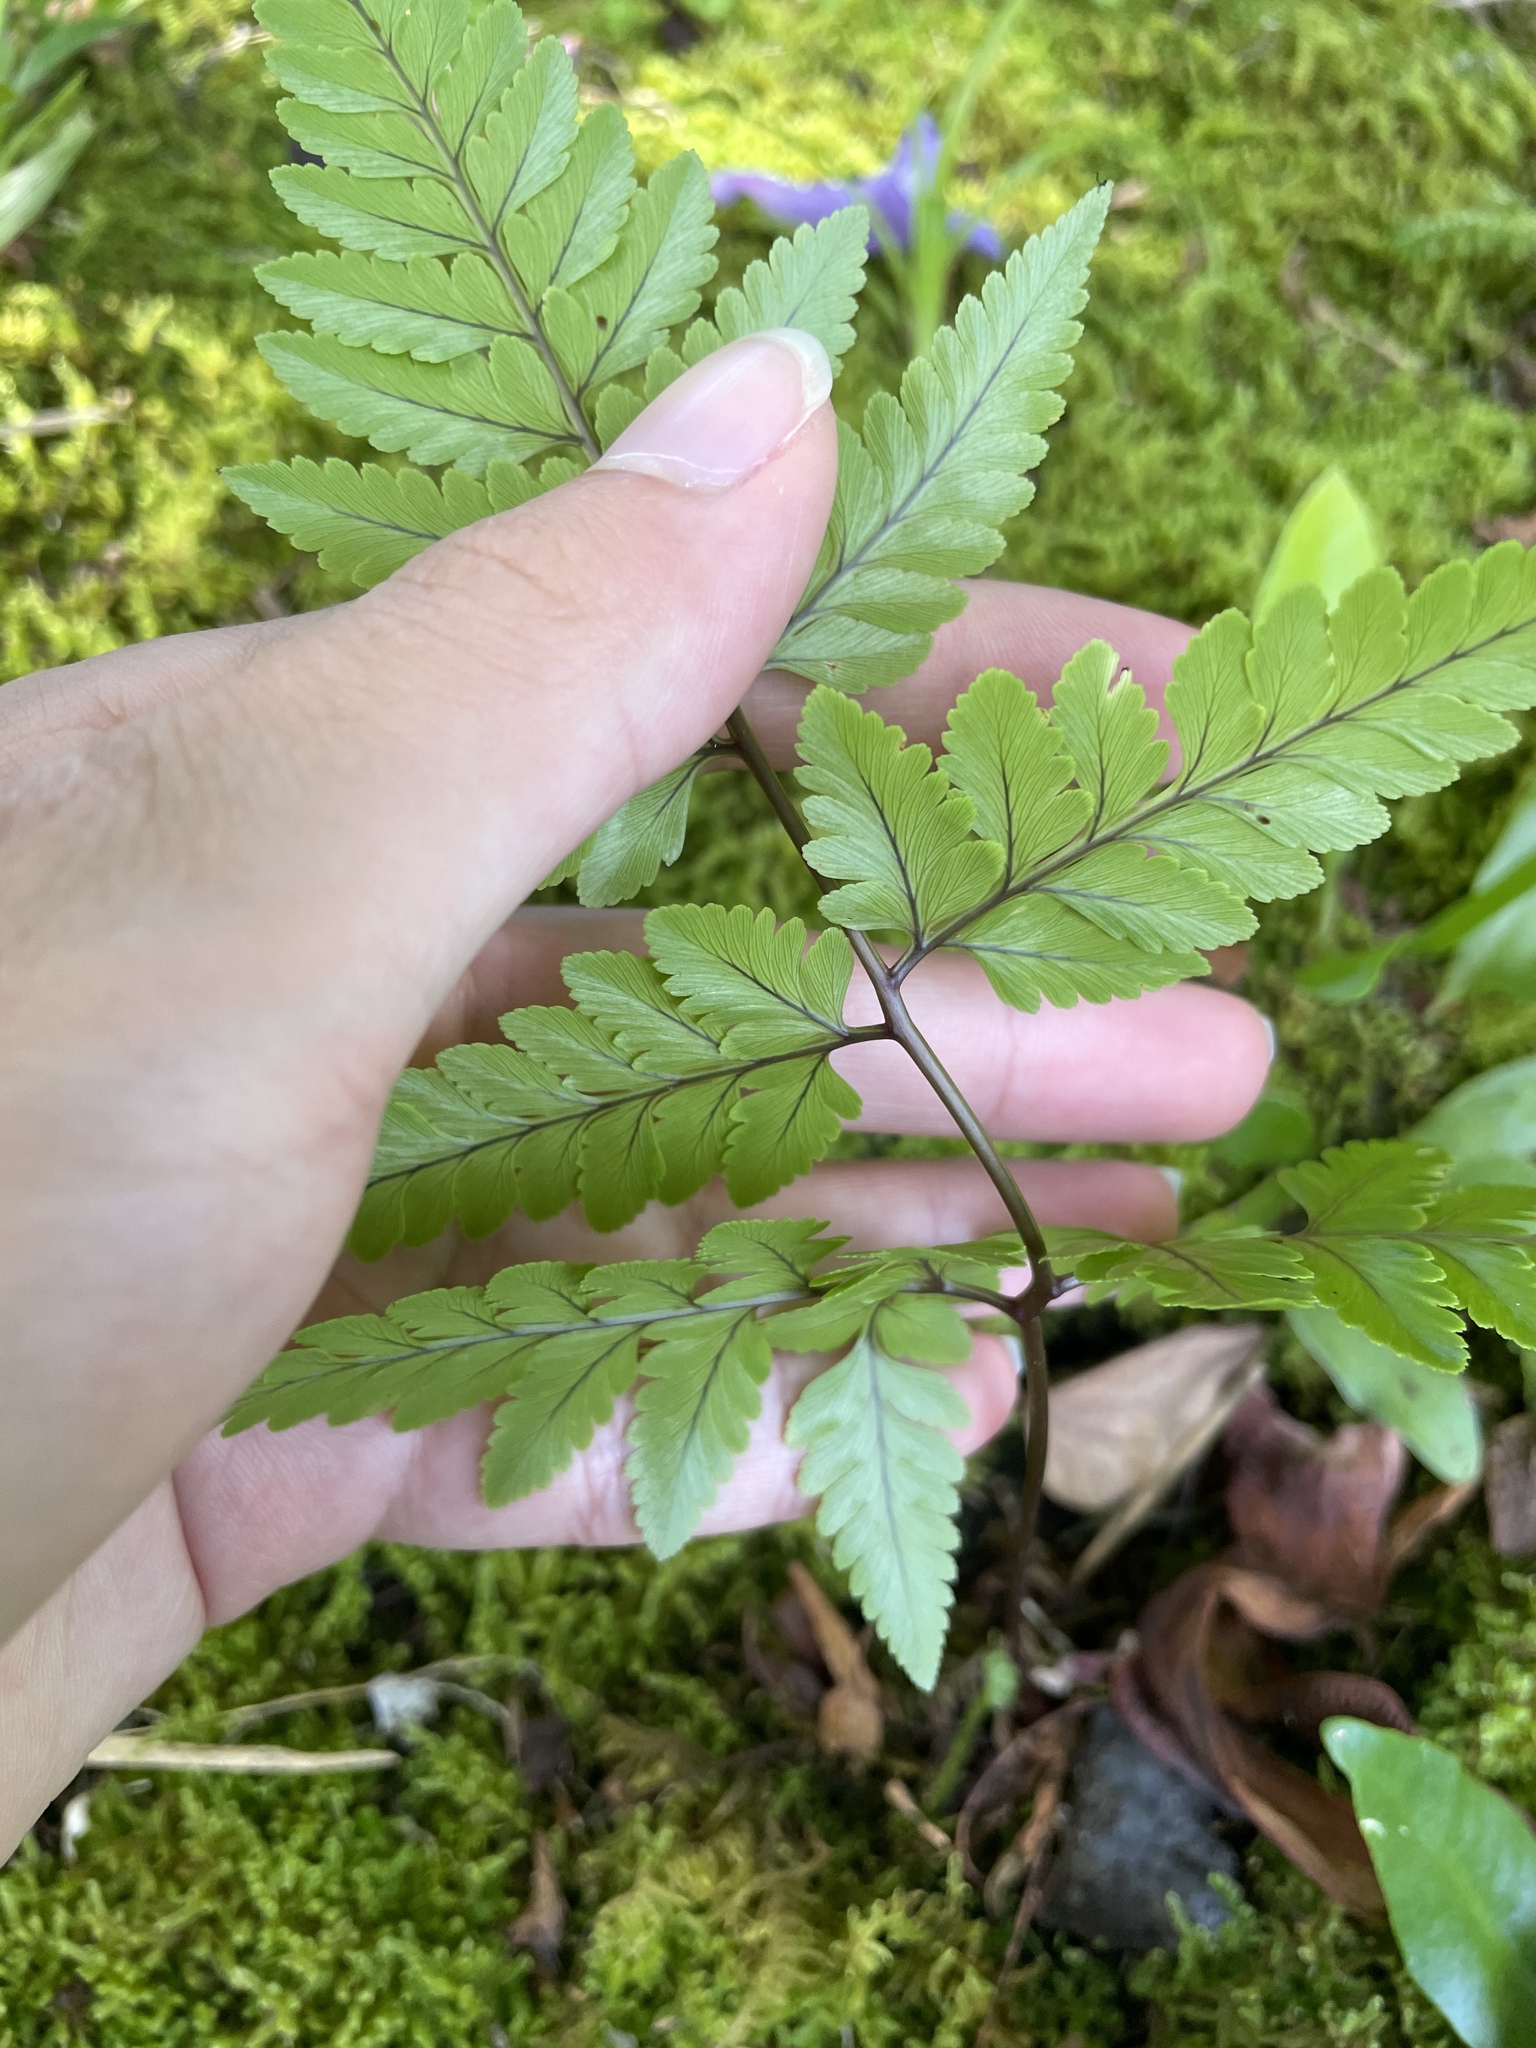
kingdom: Plantae
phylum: Tracheophyta
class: Polypodiopsida
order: Polypodiales
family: Davalliaceae
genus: Davallia
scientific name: Davallia solida
